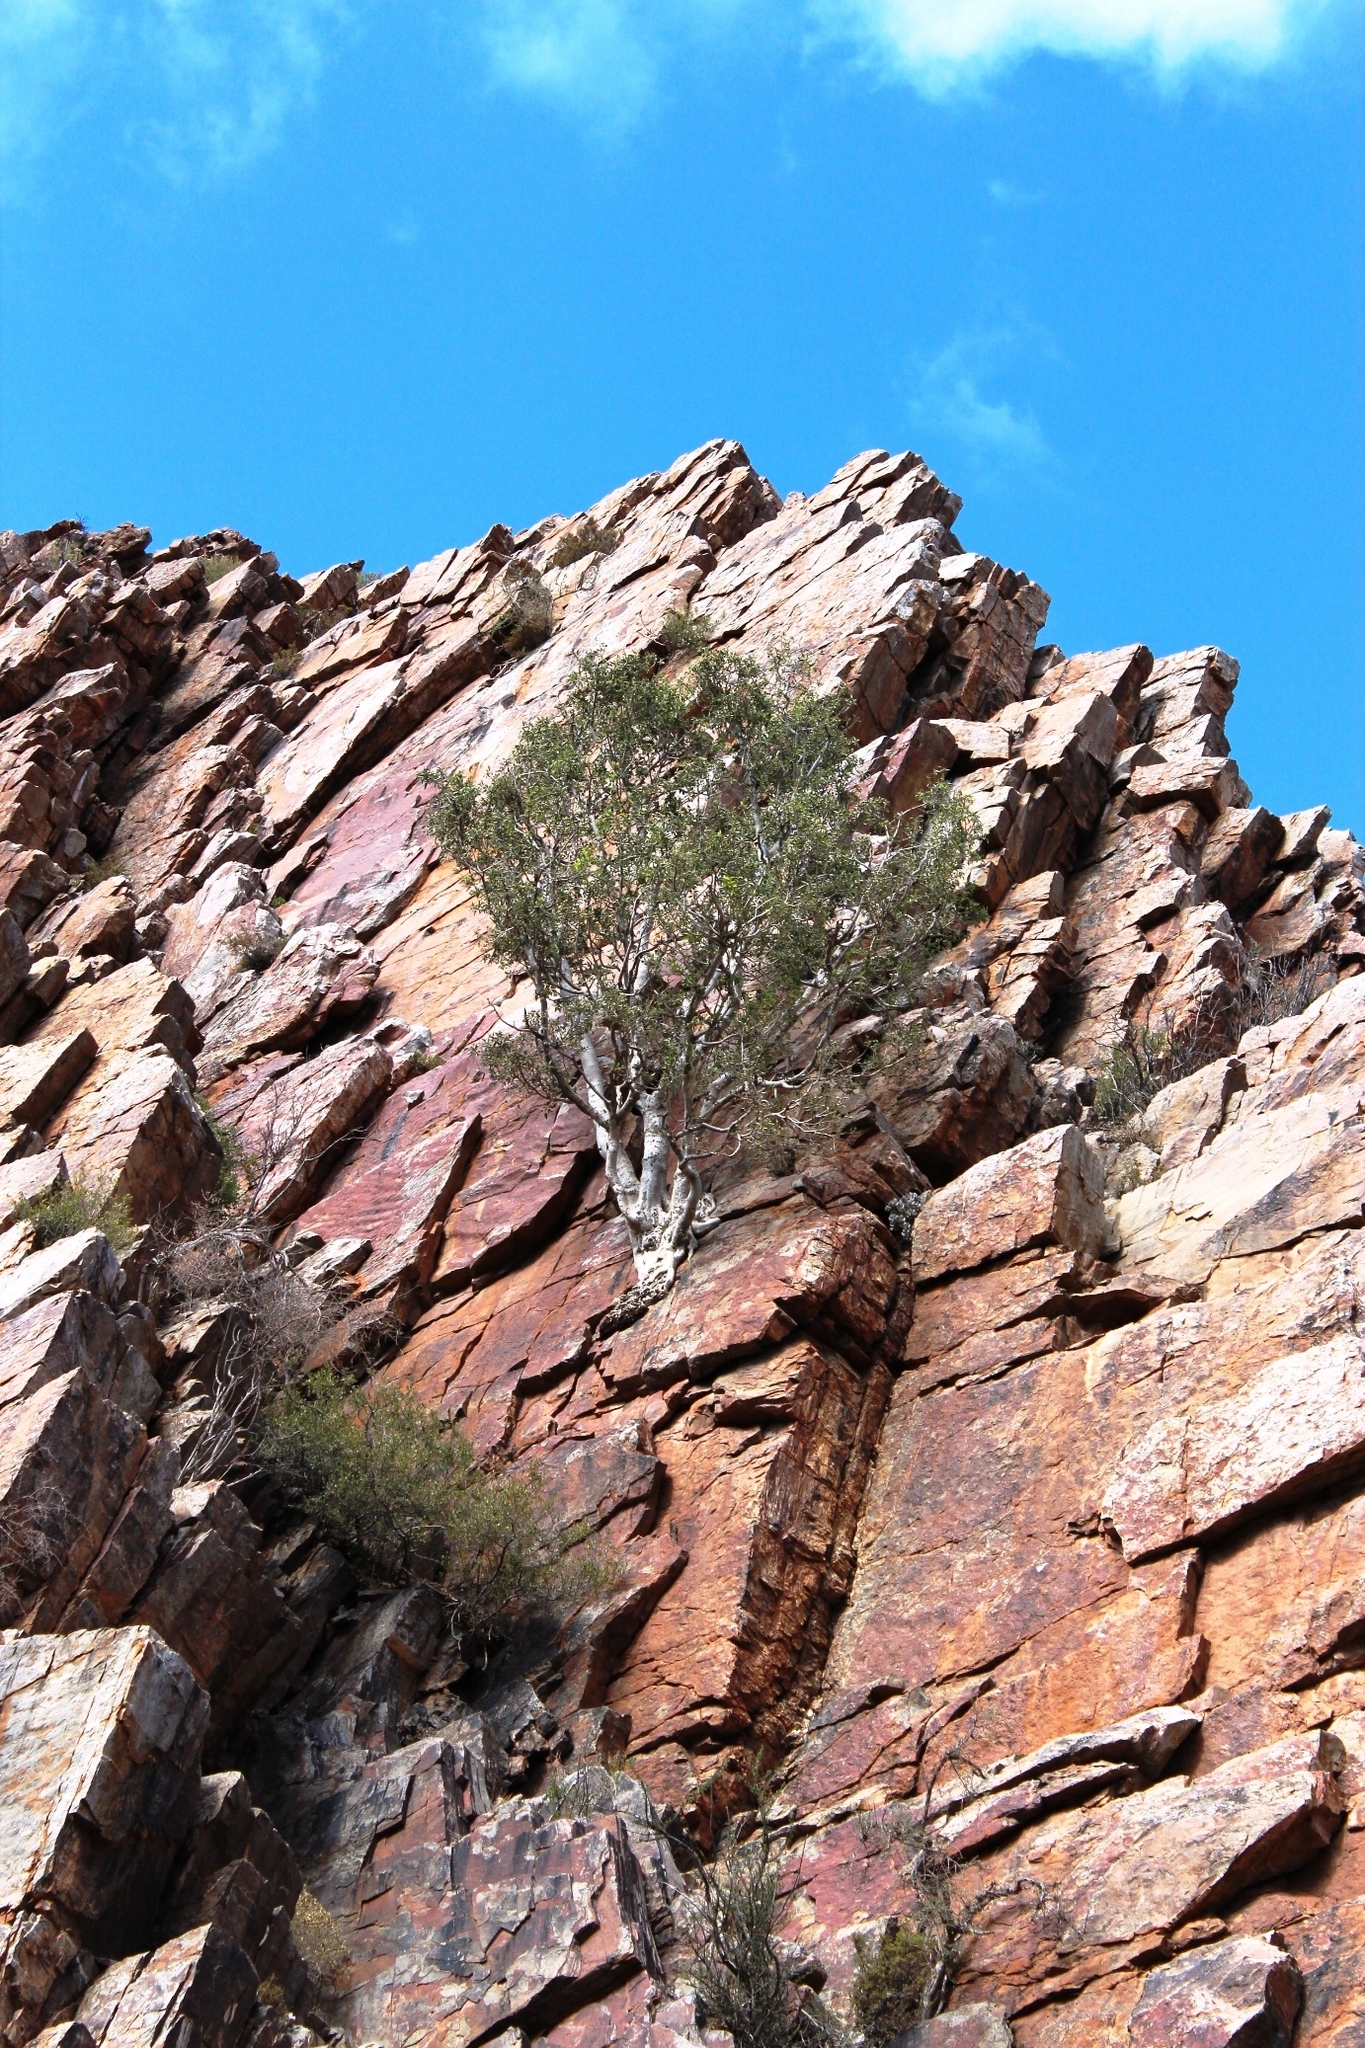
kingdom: Plantae
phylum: Tracheophyta
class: Magnoliopsida
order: Rosales
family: Moraceae
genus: Ficus
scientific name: Ficus cordata
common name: Namaqua rock fig
